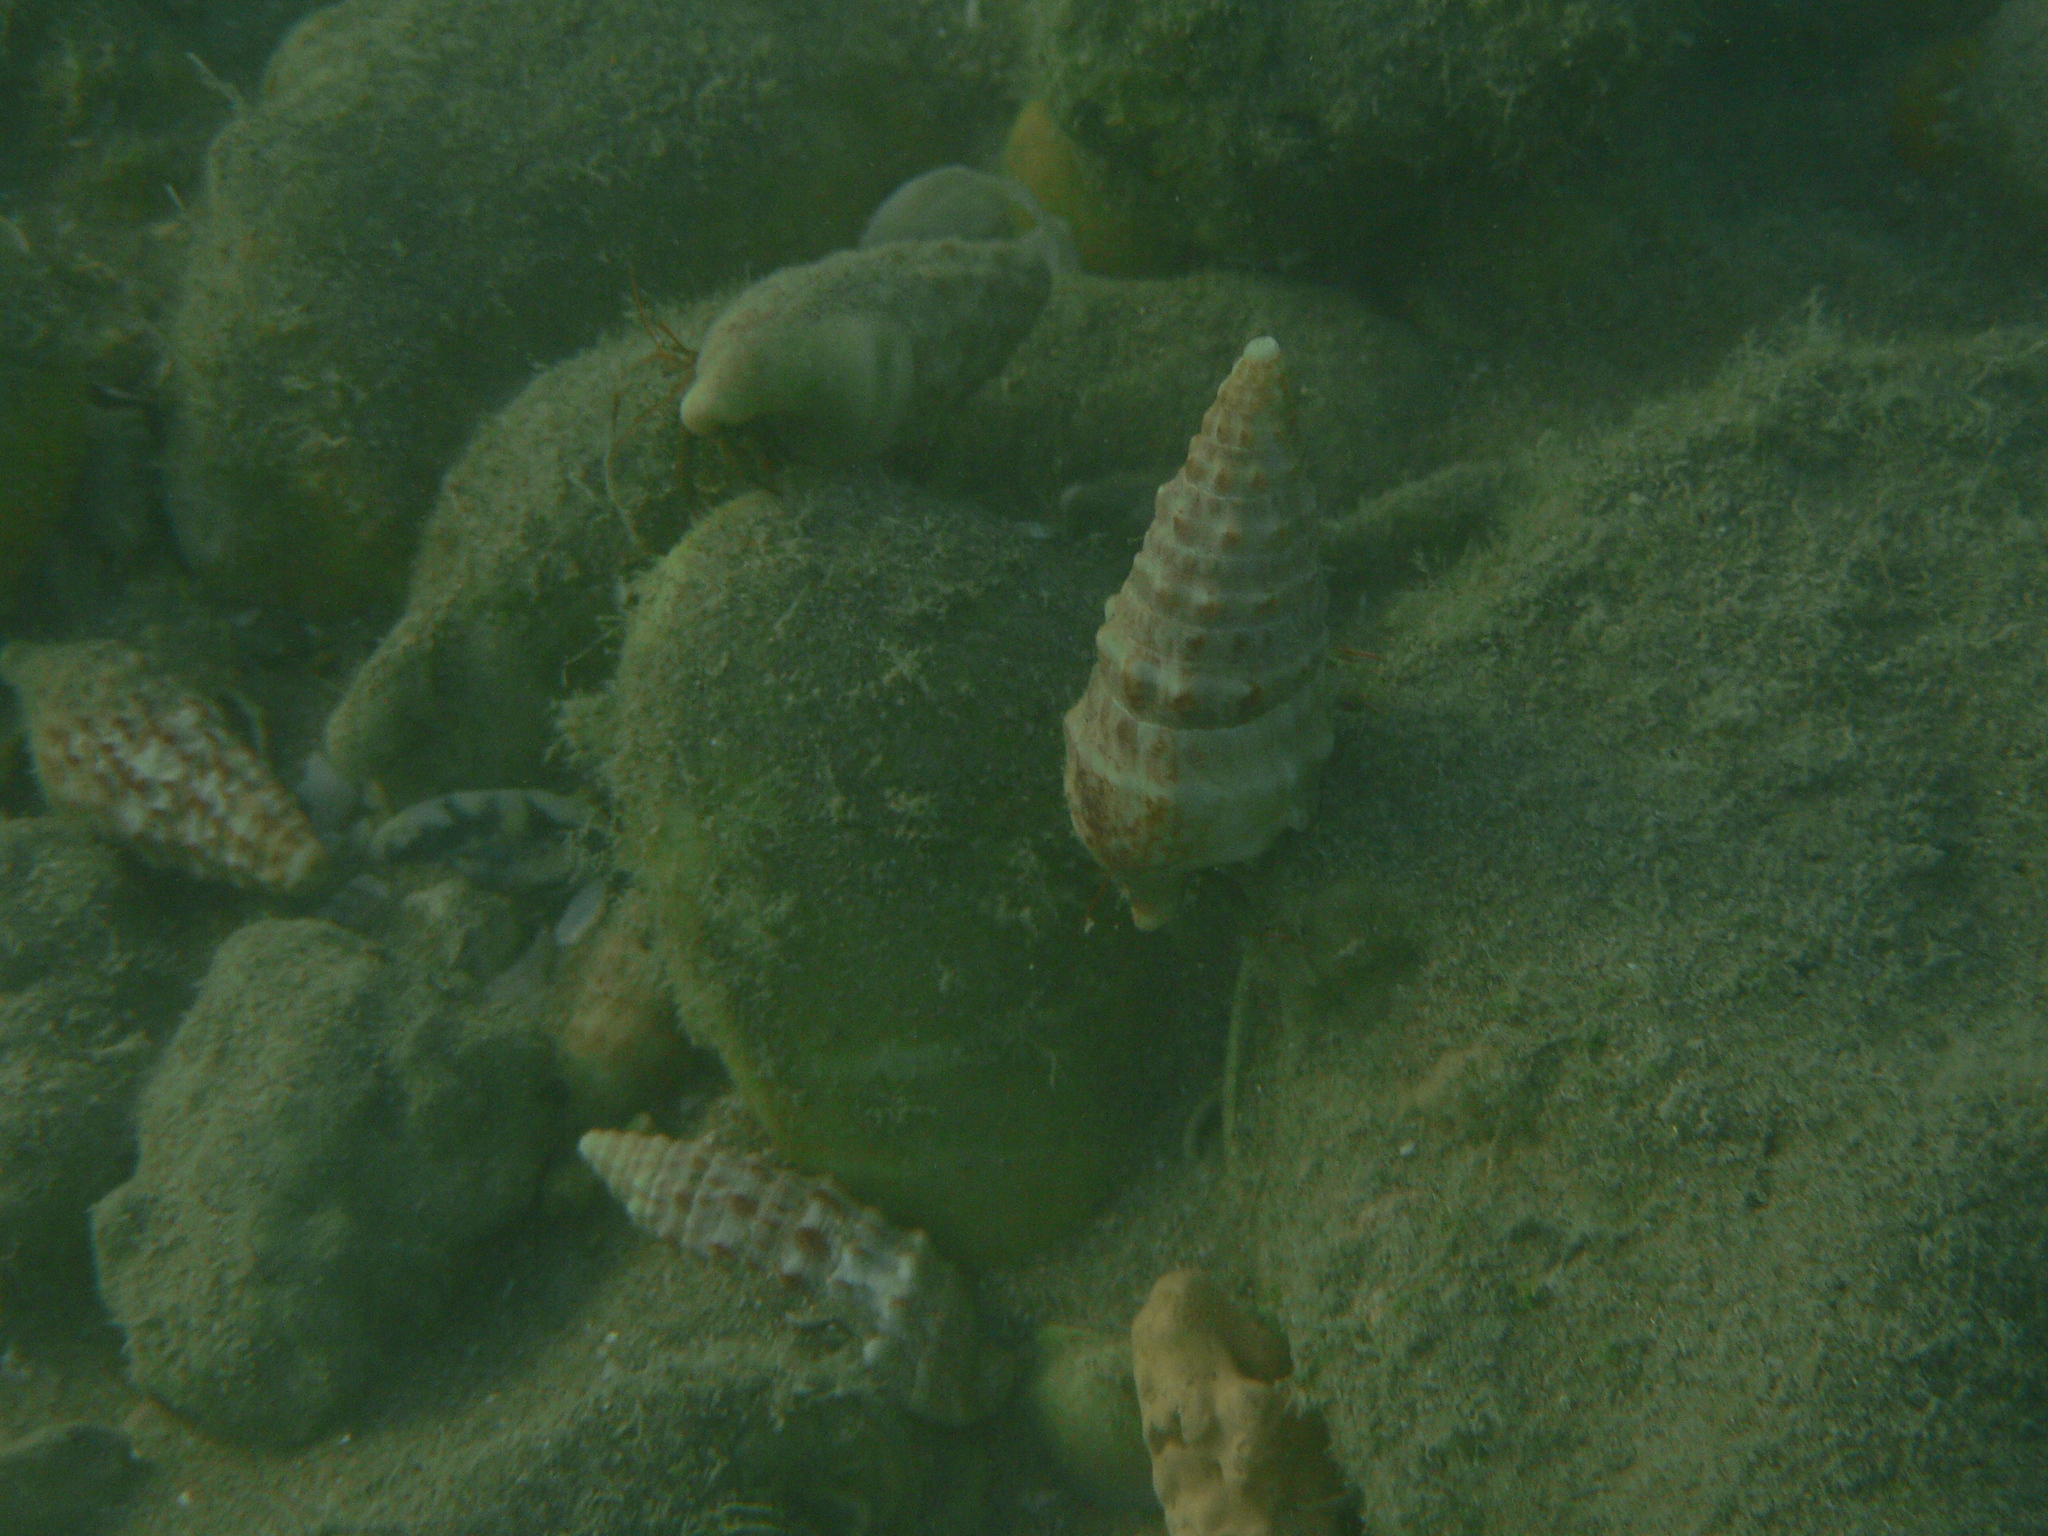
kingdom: Animalia
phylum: Mollusca
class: Gastropoda
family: Cerithiidae
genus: Cerithium
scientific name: Cerithium vulgatum
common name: European cerith
